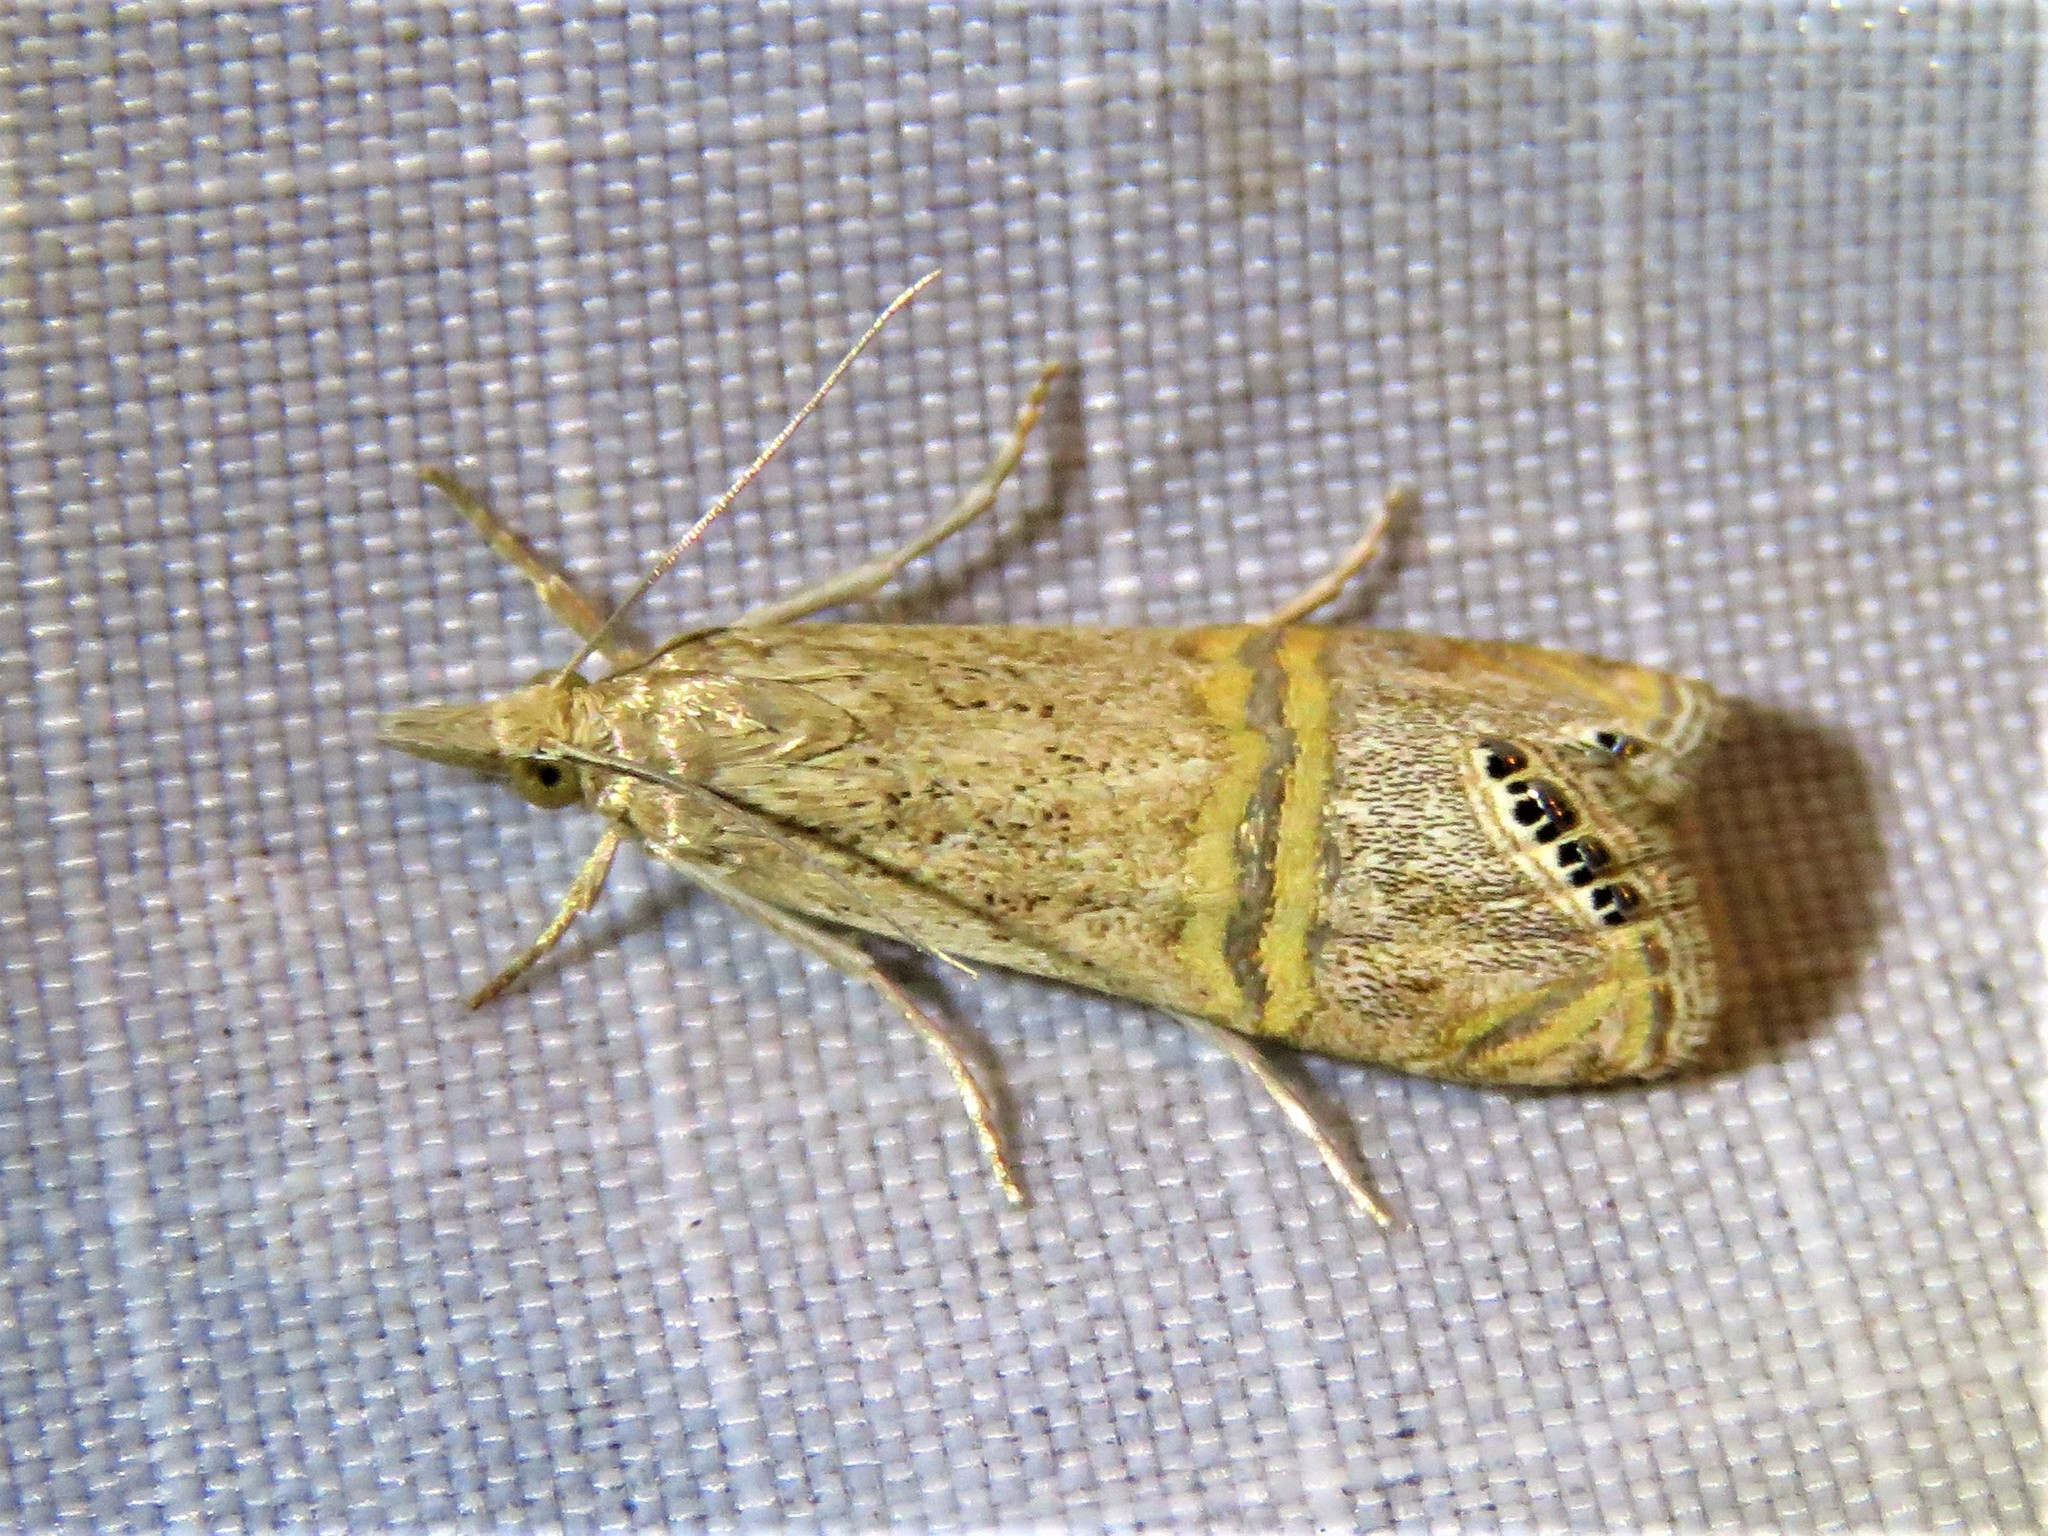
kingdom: Animalia
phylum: Arthropoda
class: Insecta
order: Lepidoptera
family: Crambidae
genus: Euchromius
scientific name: Euchromius ocellea
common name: Necklace veneer moth
